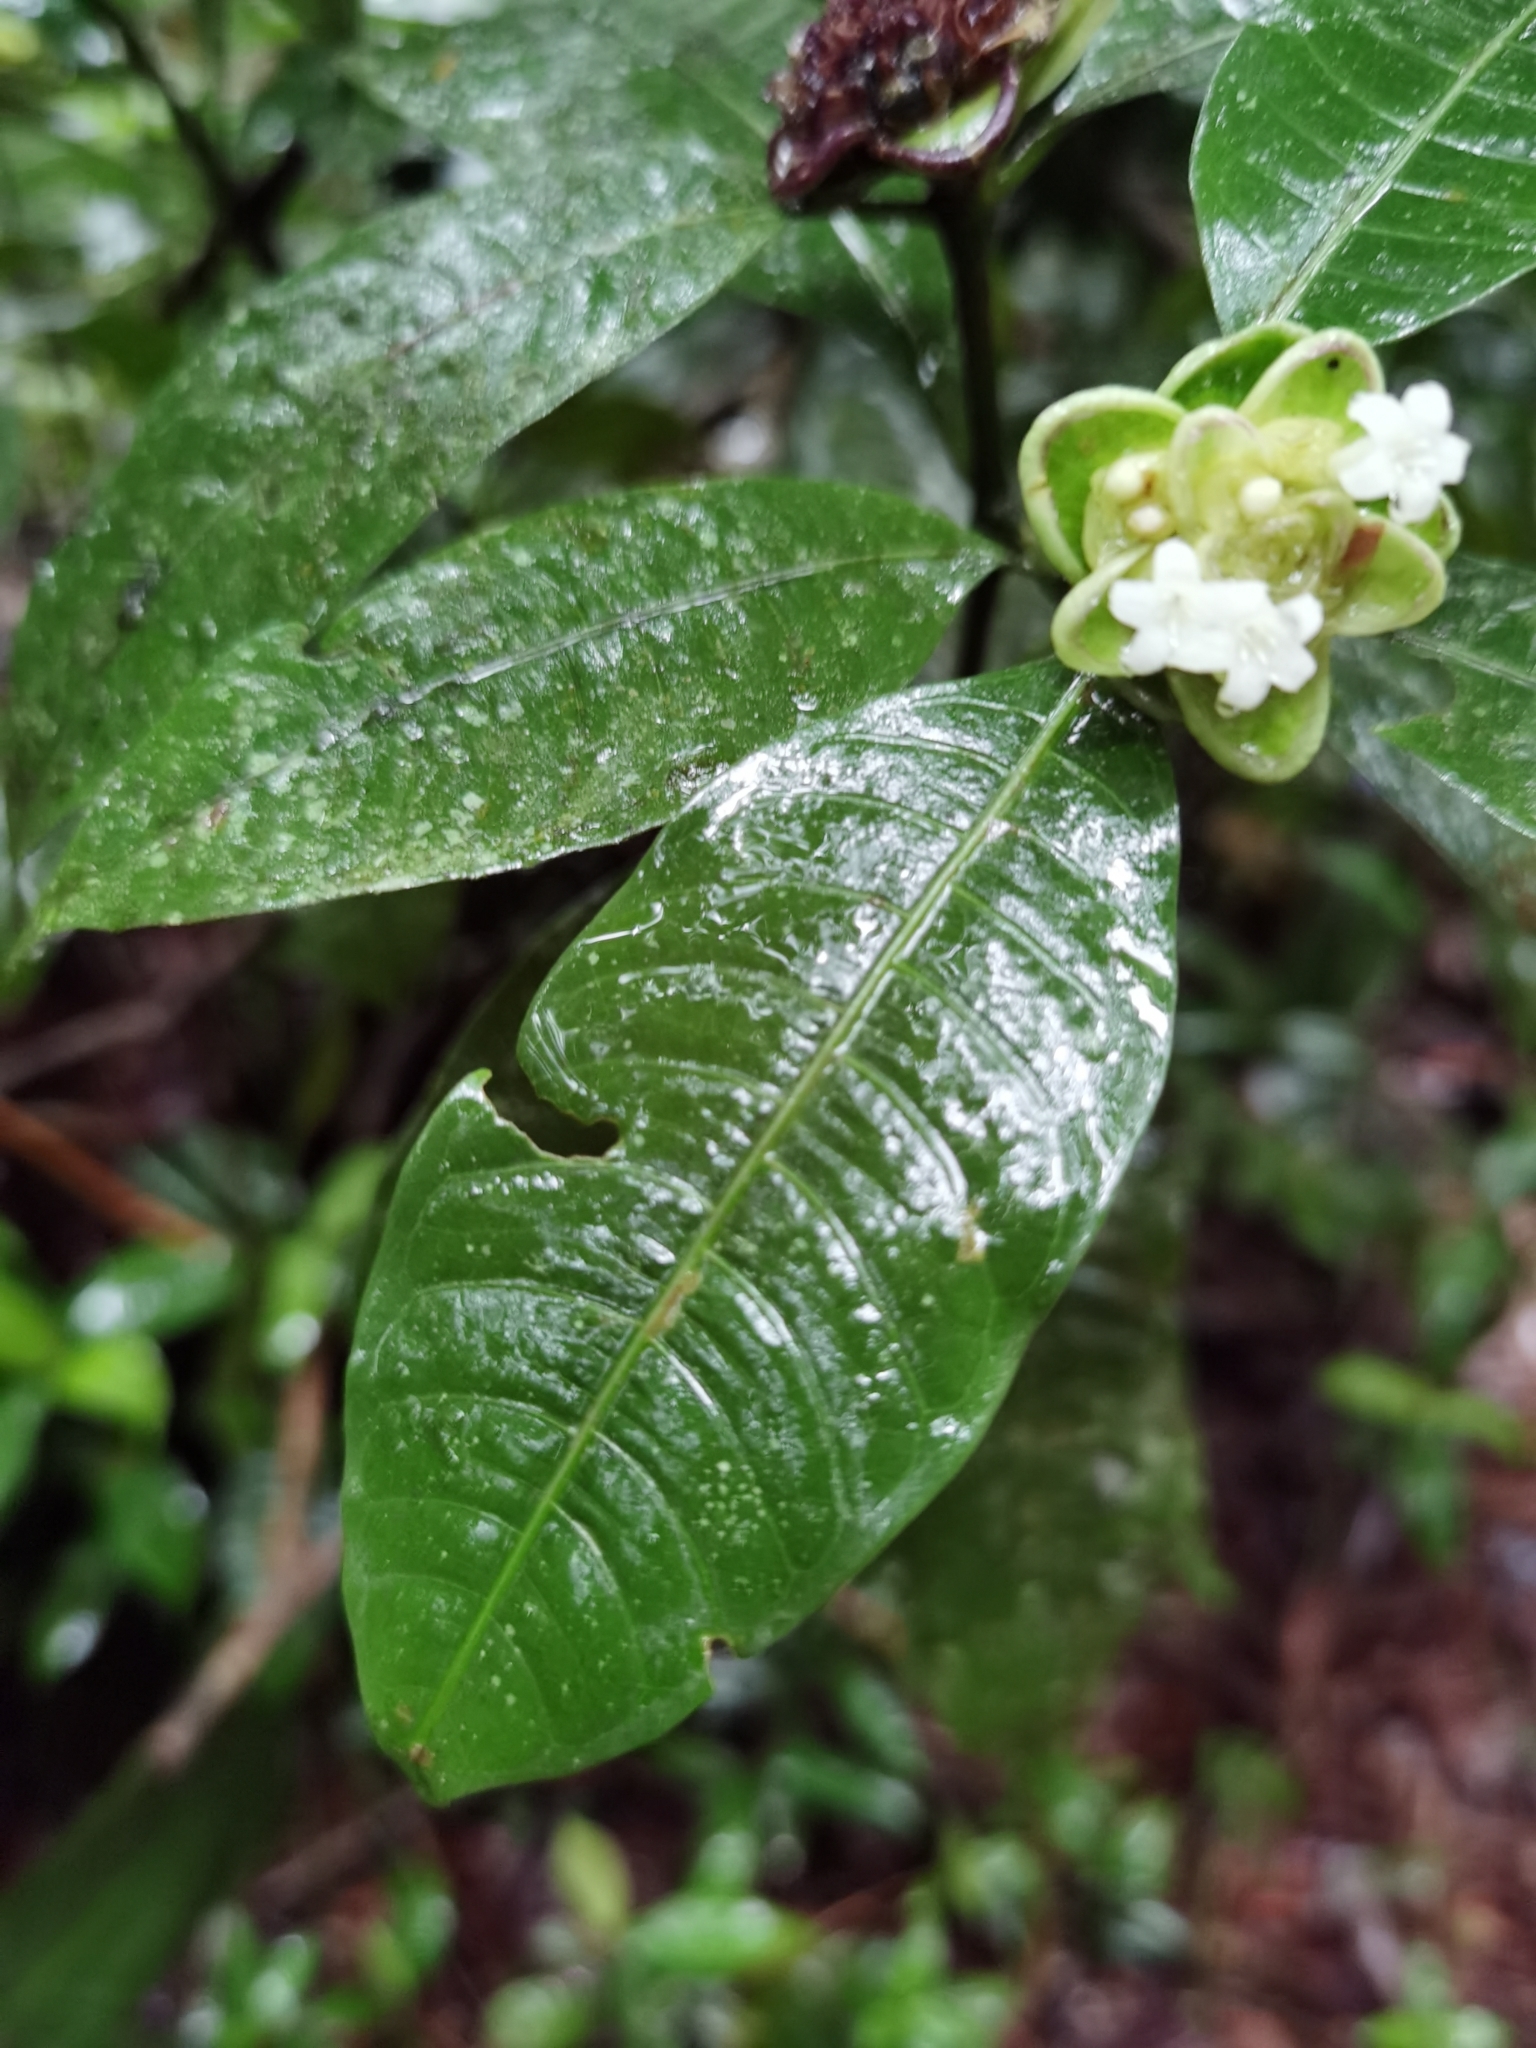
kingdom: Plantae
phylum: Tracheophyta
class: Magnoliopsida
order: Gentianales
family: Rubiaceae
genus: Palicourea
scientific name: Palicourea glomerulata
